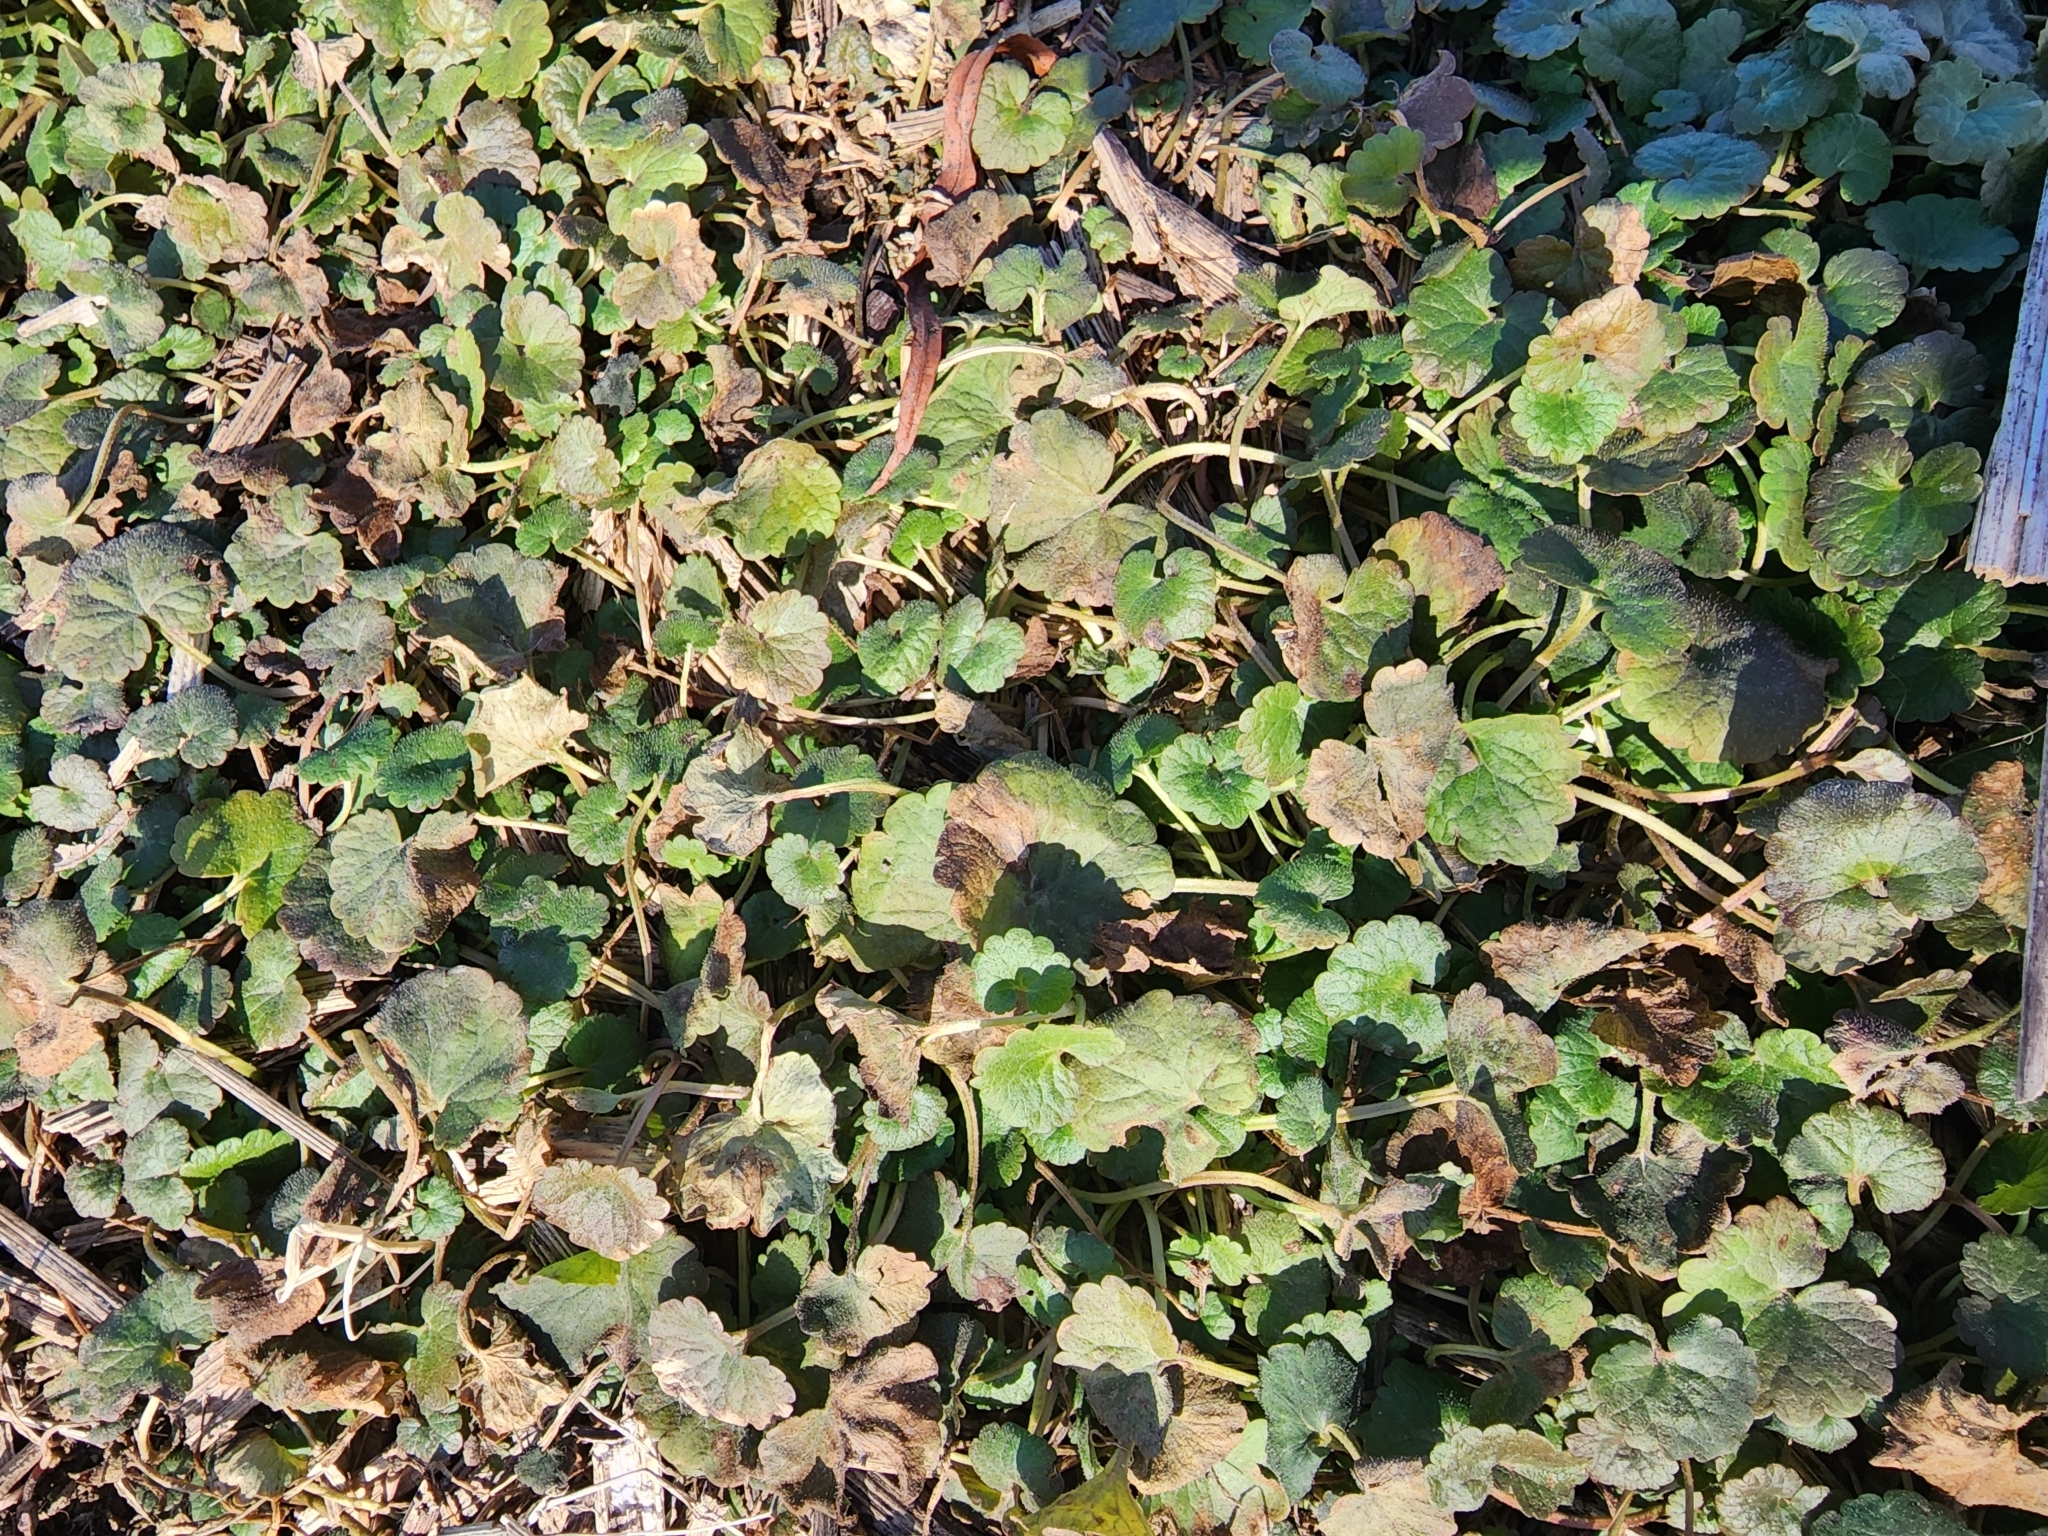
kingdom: Plantae
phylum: Tracheophyta
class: Magnoliopsida
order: Lamiales
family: Lamiaceae
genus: Glechoma
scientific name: Glechoma hederacea
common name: Ground ivy
